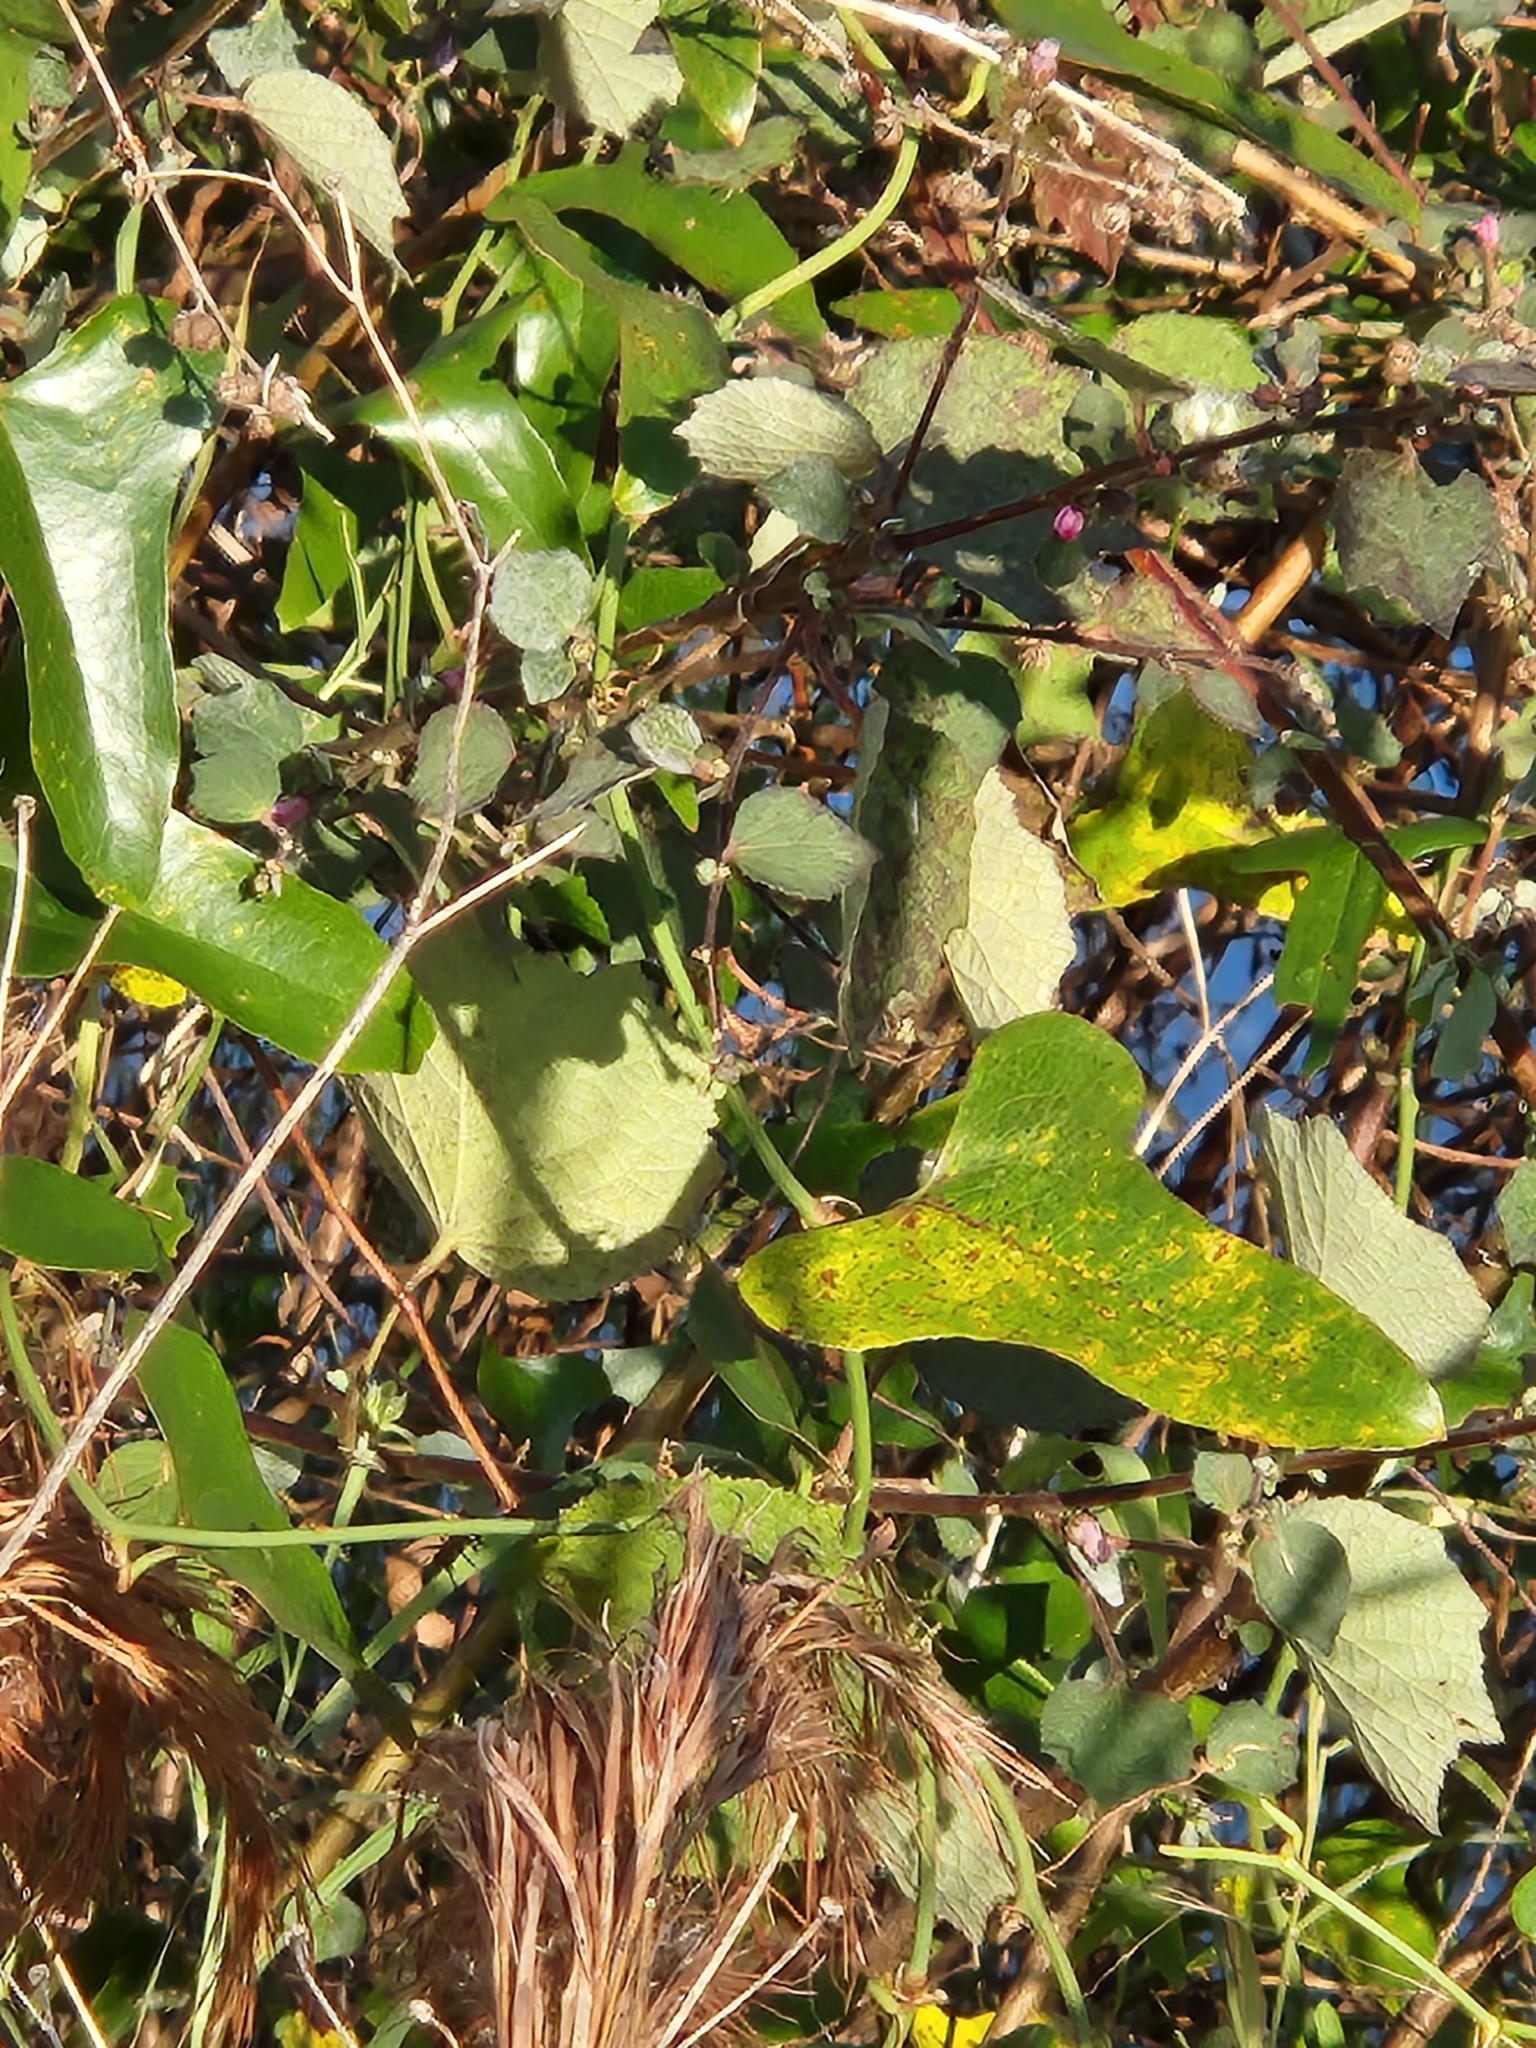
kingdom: Plantae
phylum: Tracheophyta
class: Liliopsida
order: Liliales
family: Smilacaceae
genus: Smilax
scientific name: Smilax bona-nox
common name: Catbrier
